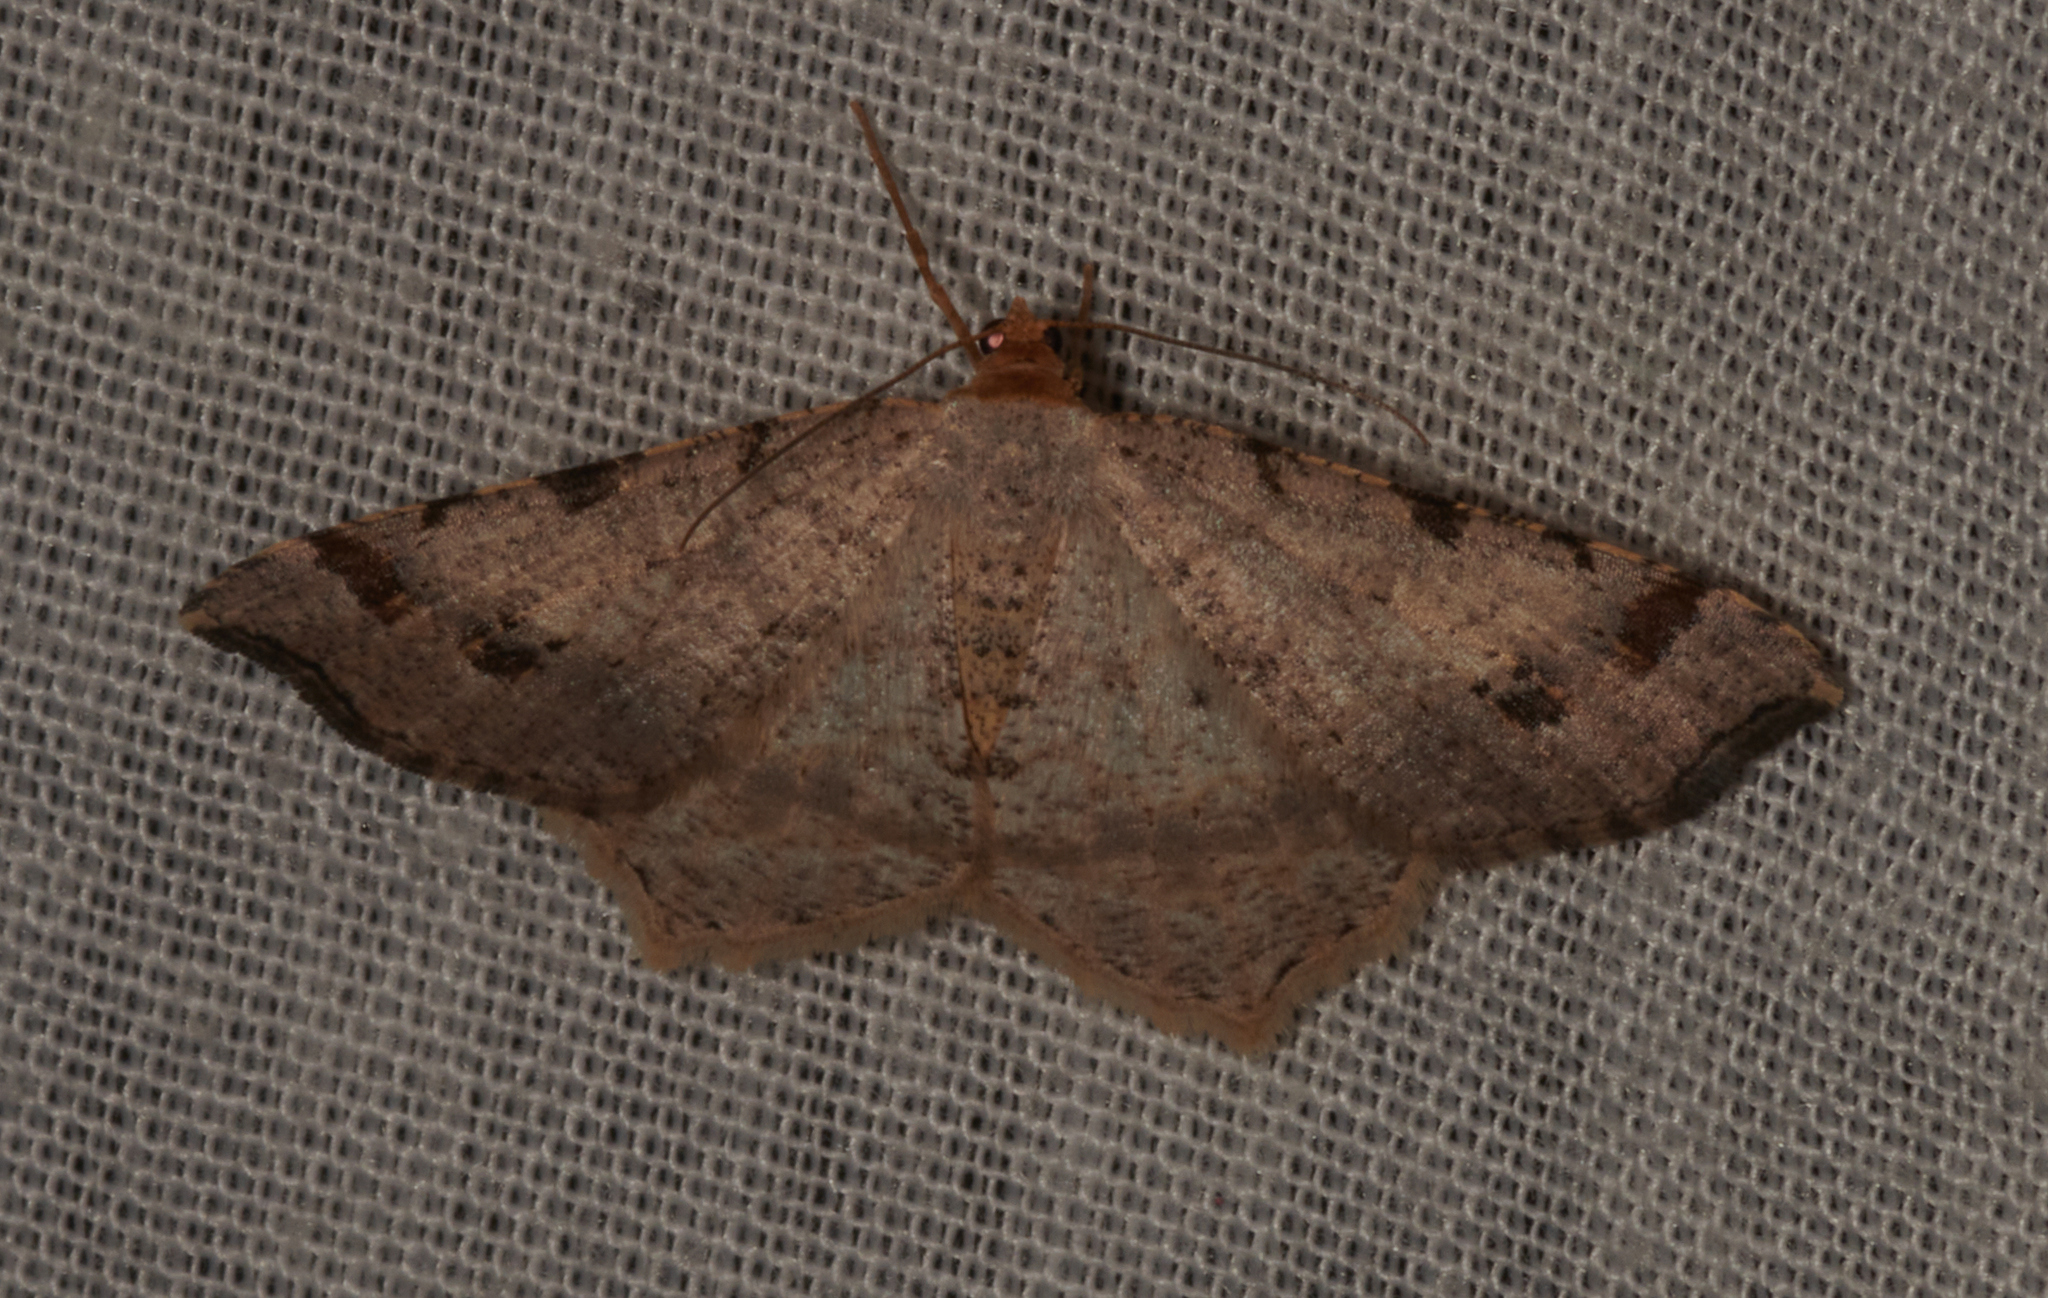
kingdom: Animalia
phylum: Arthropoda
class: Insecta
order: Lepidoptera
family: Geometridae
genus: Macaria
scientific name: Macaria bisignata
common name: Red-headed inchworm
